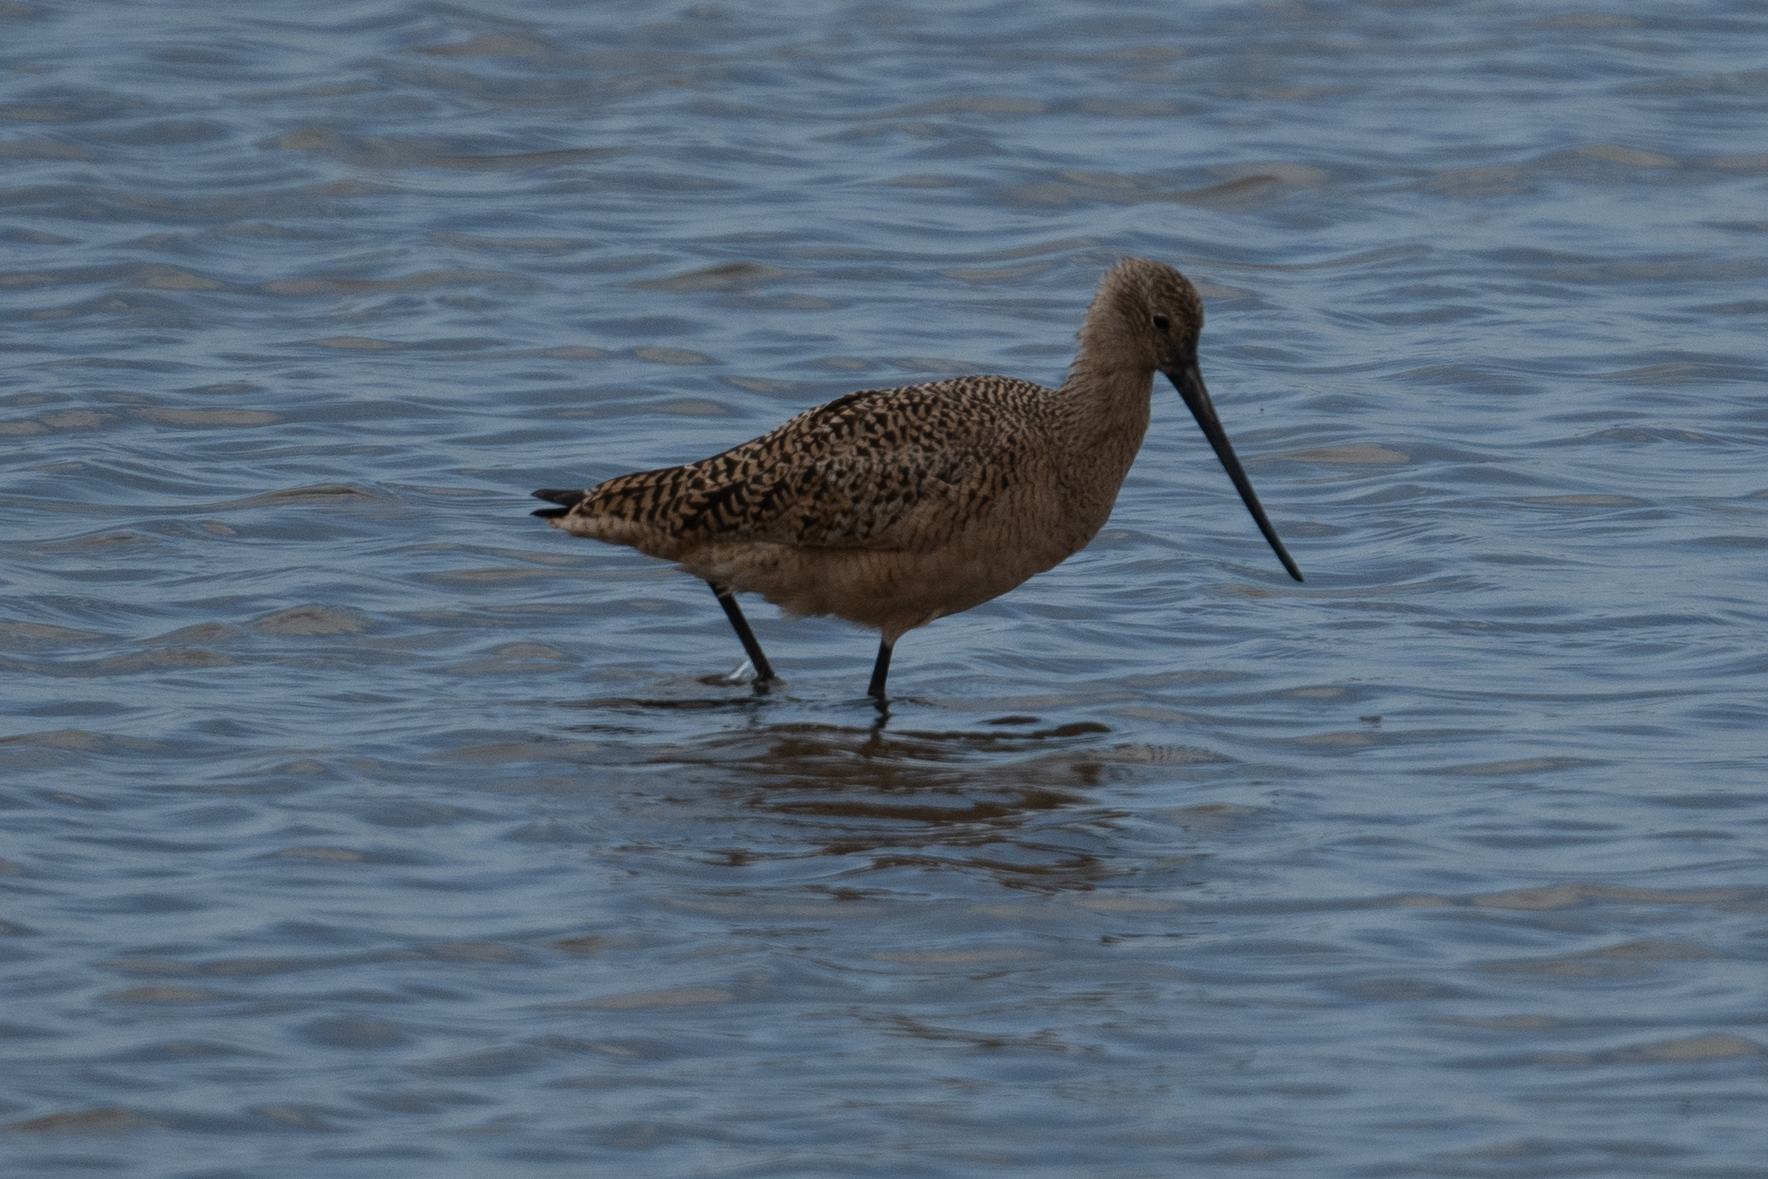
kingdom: Animalia
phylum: Chordata
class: Aves
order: Charadriiformes
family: Scolopacidae
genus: Limosa
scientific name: Limosa fedoa
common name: Marbled godwit
